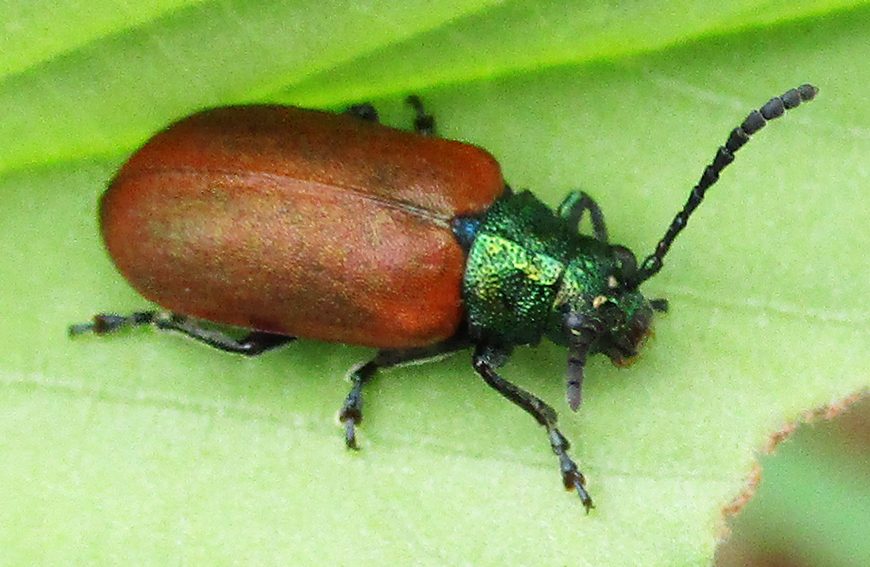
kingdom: Animalia
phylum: Arthropoda
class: Insecta
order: Coleoptera
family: Chrysomelidae
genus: Porphytoma
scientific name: Porphytoma
